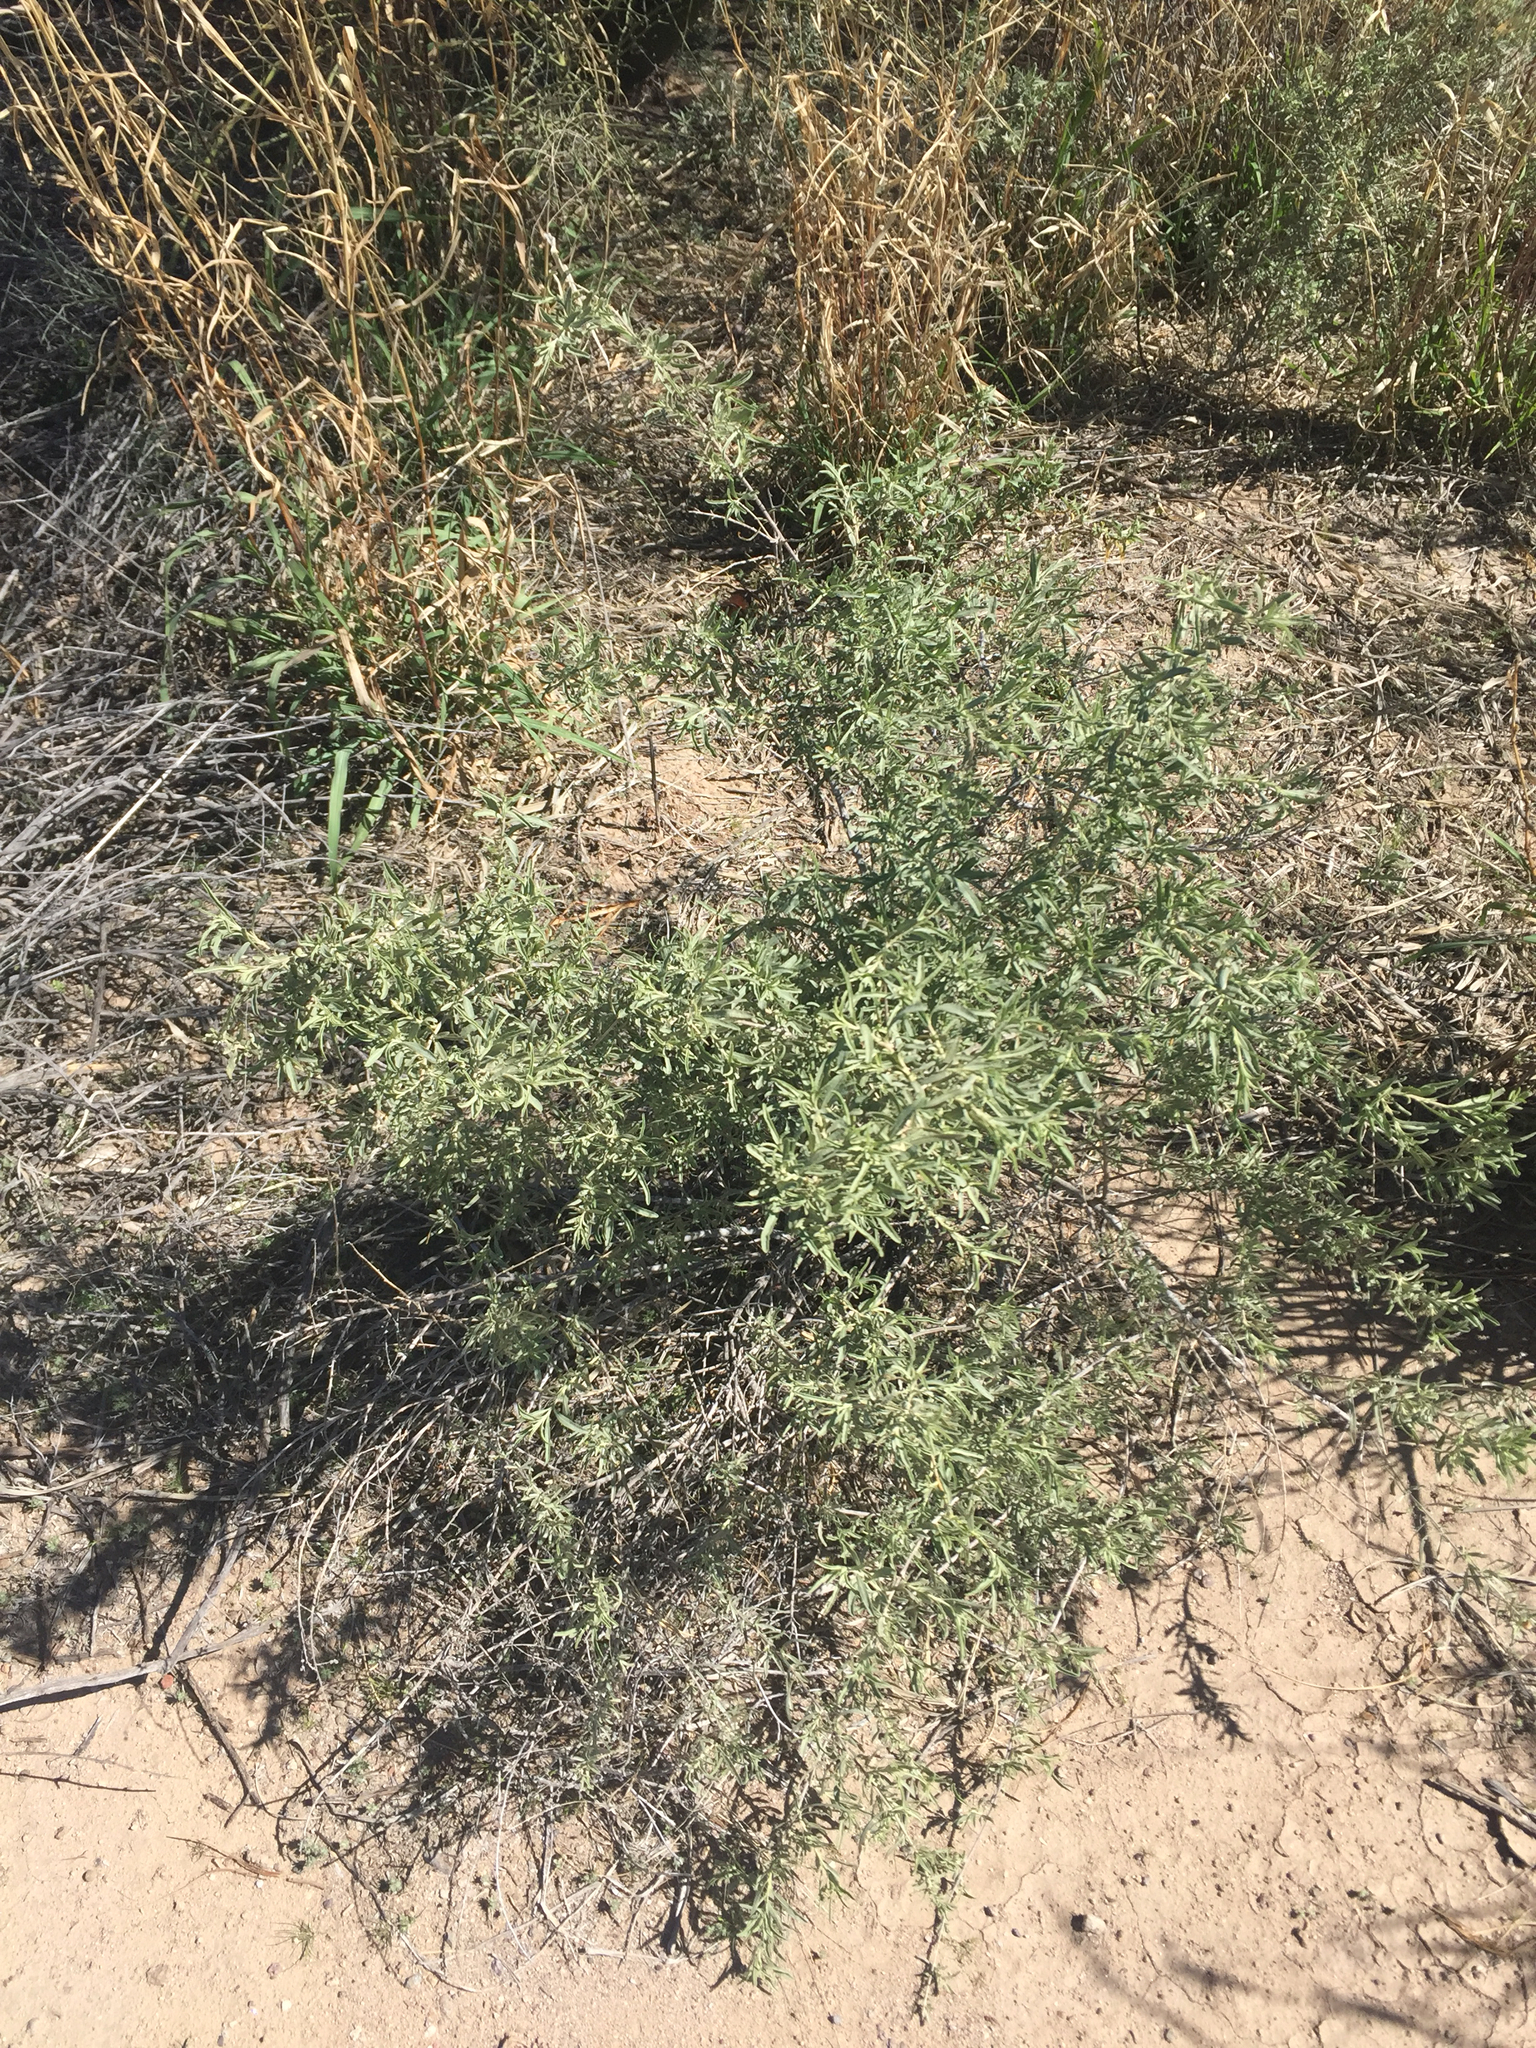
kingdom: Plantae
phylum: Tracheophyta
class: Magnoliopsida
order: Caryophyllales
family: Amaranthaceae
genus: Atriplex
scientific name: Atriplex canescens
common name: Four-wing saltbush
